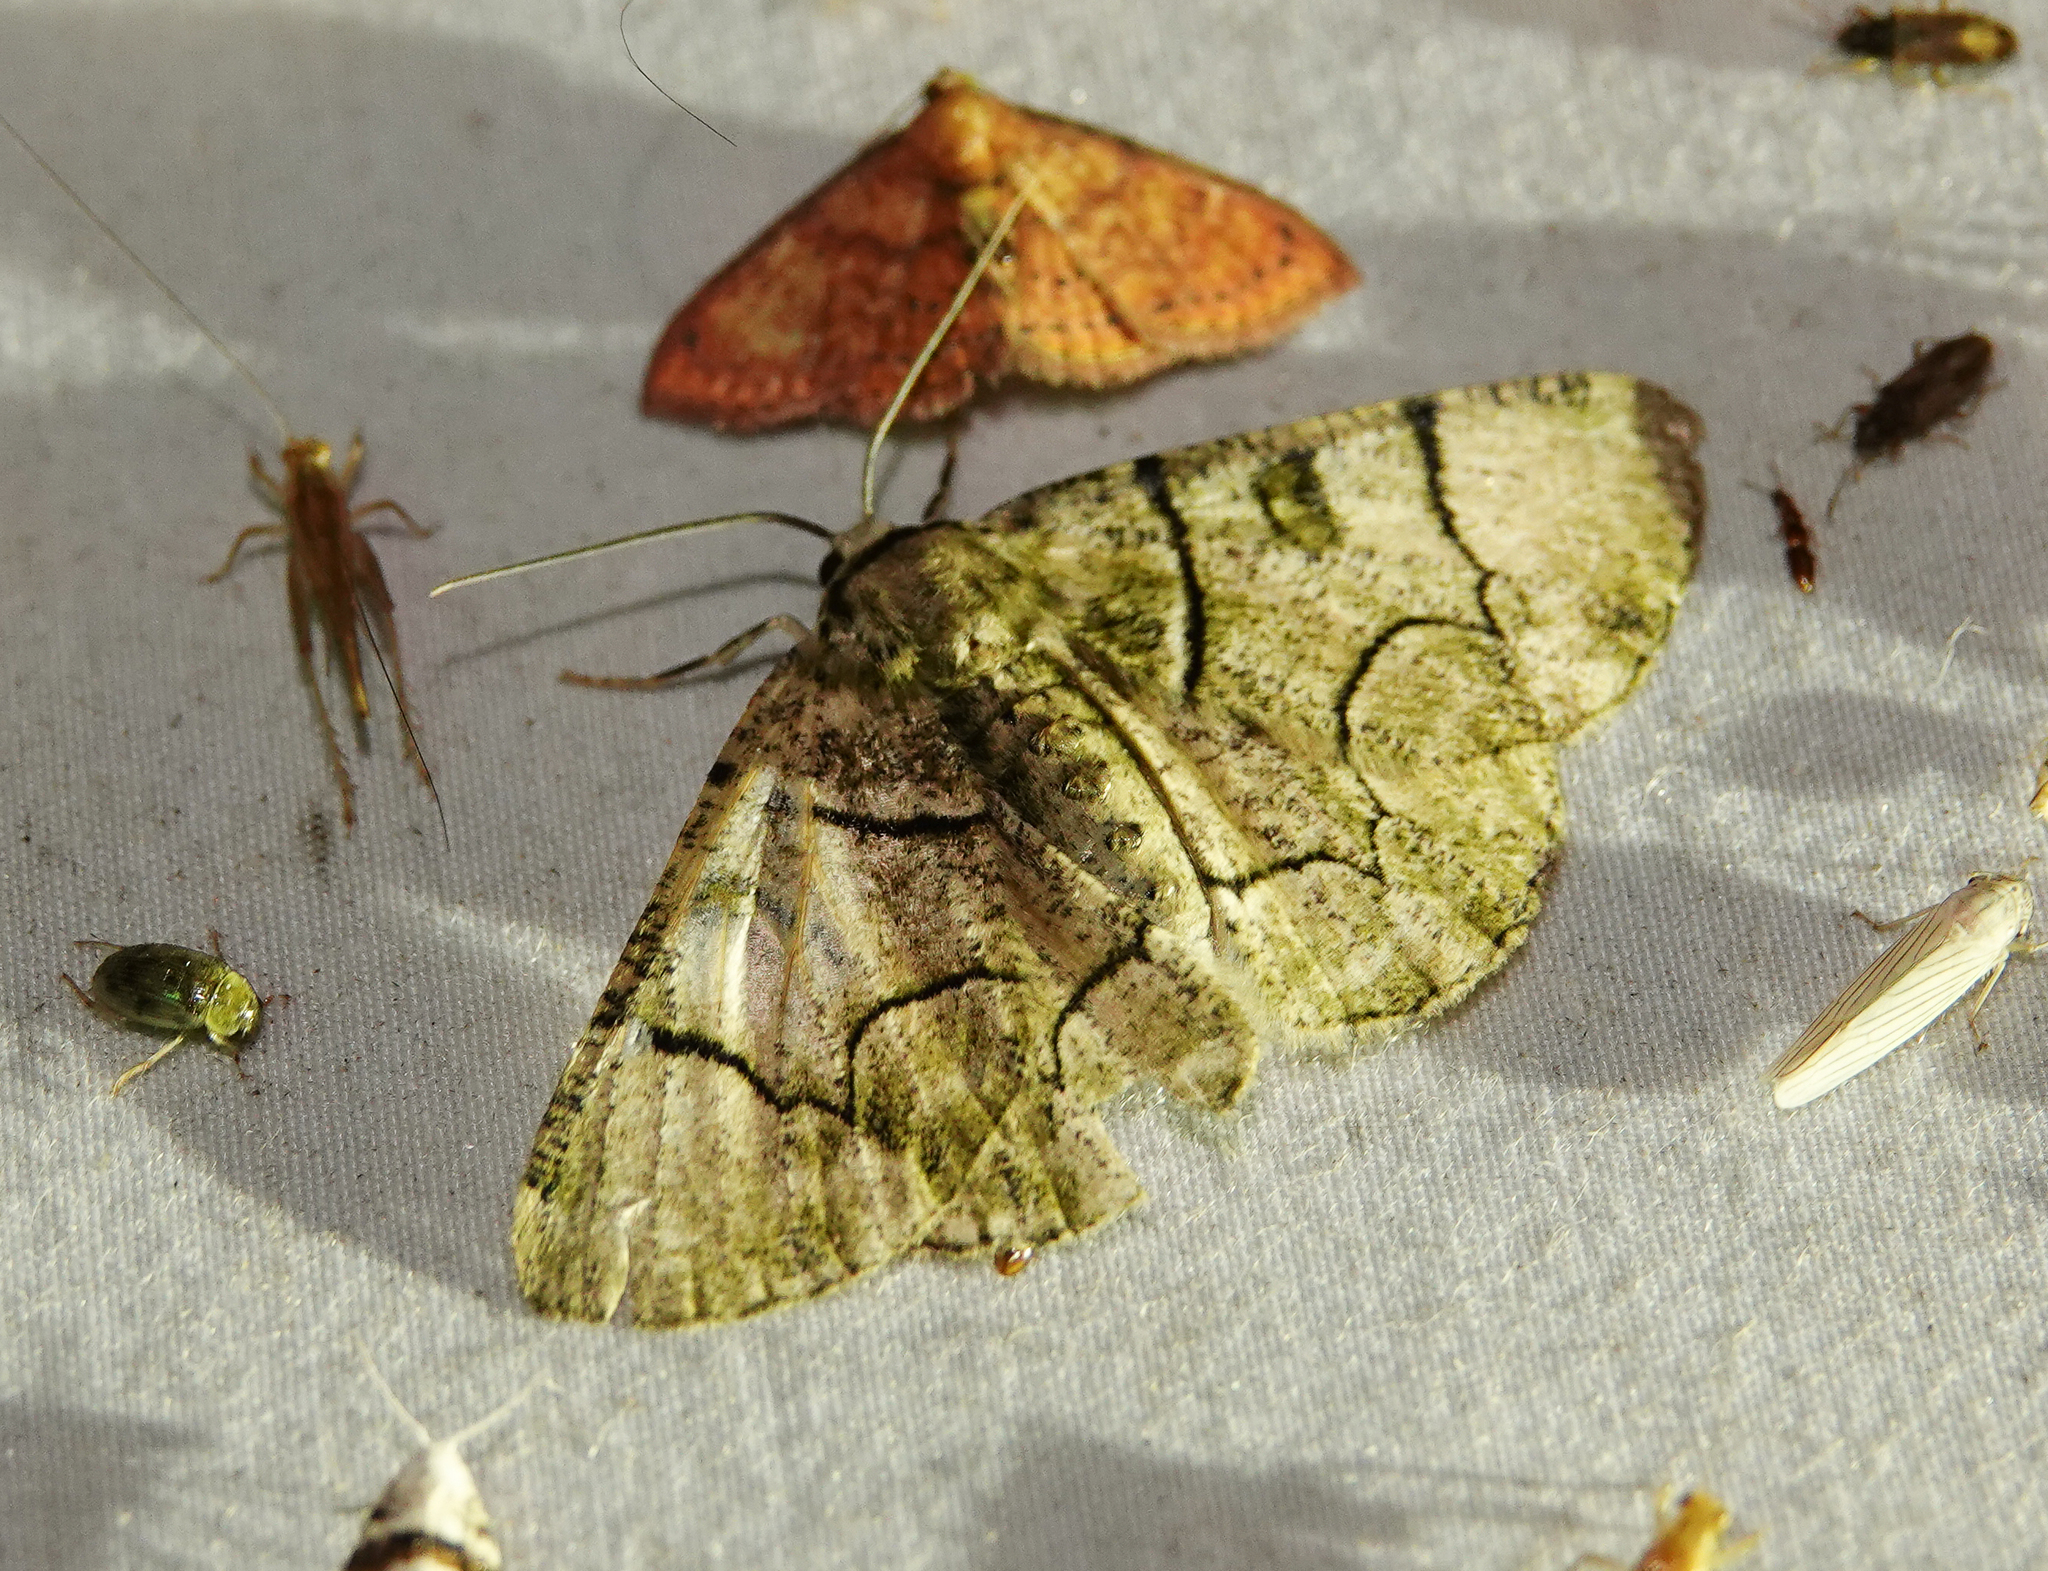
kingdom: Animalia
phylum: Arthropoda
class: Insecta
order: Lepidoptera
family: Geometridae
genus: Metallolophia
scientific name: Metallolophia assamensis
